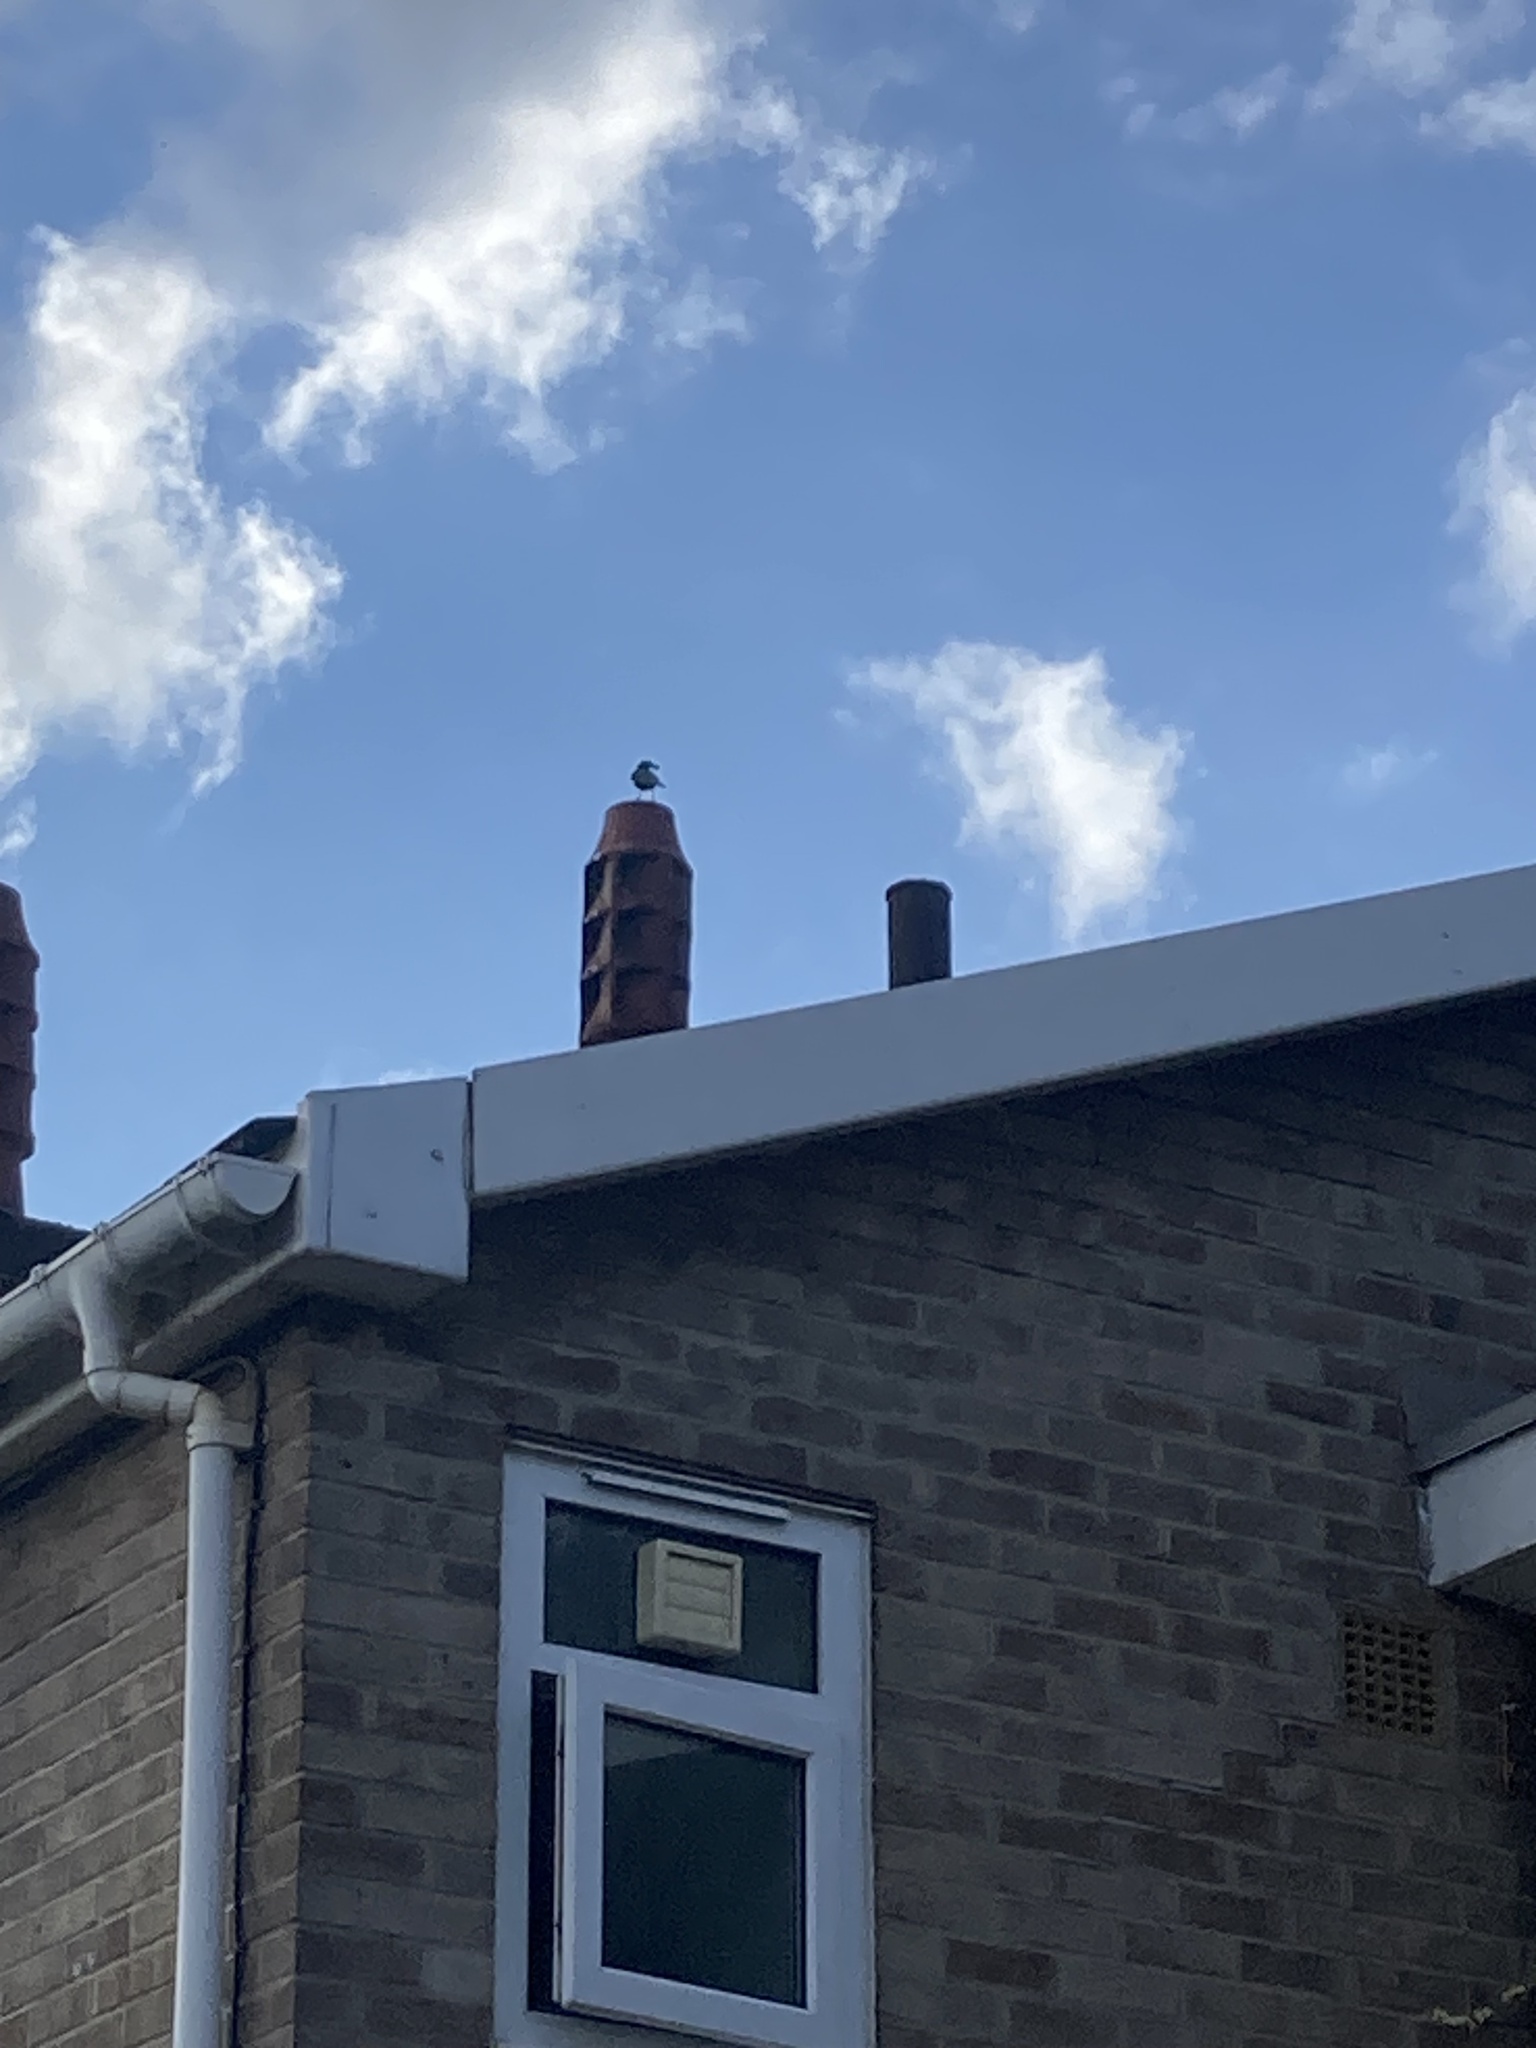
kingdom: Animalia
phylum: Chordata
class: Aves
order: Passeriformes
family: Turdidae
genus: Turdus
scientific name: Turdus merula
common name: Common blackbird
